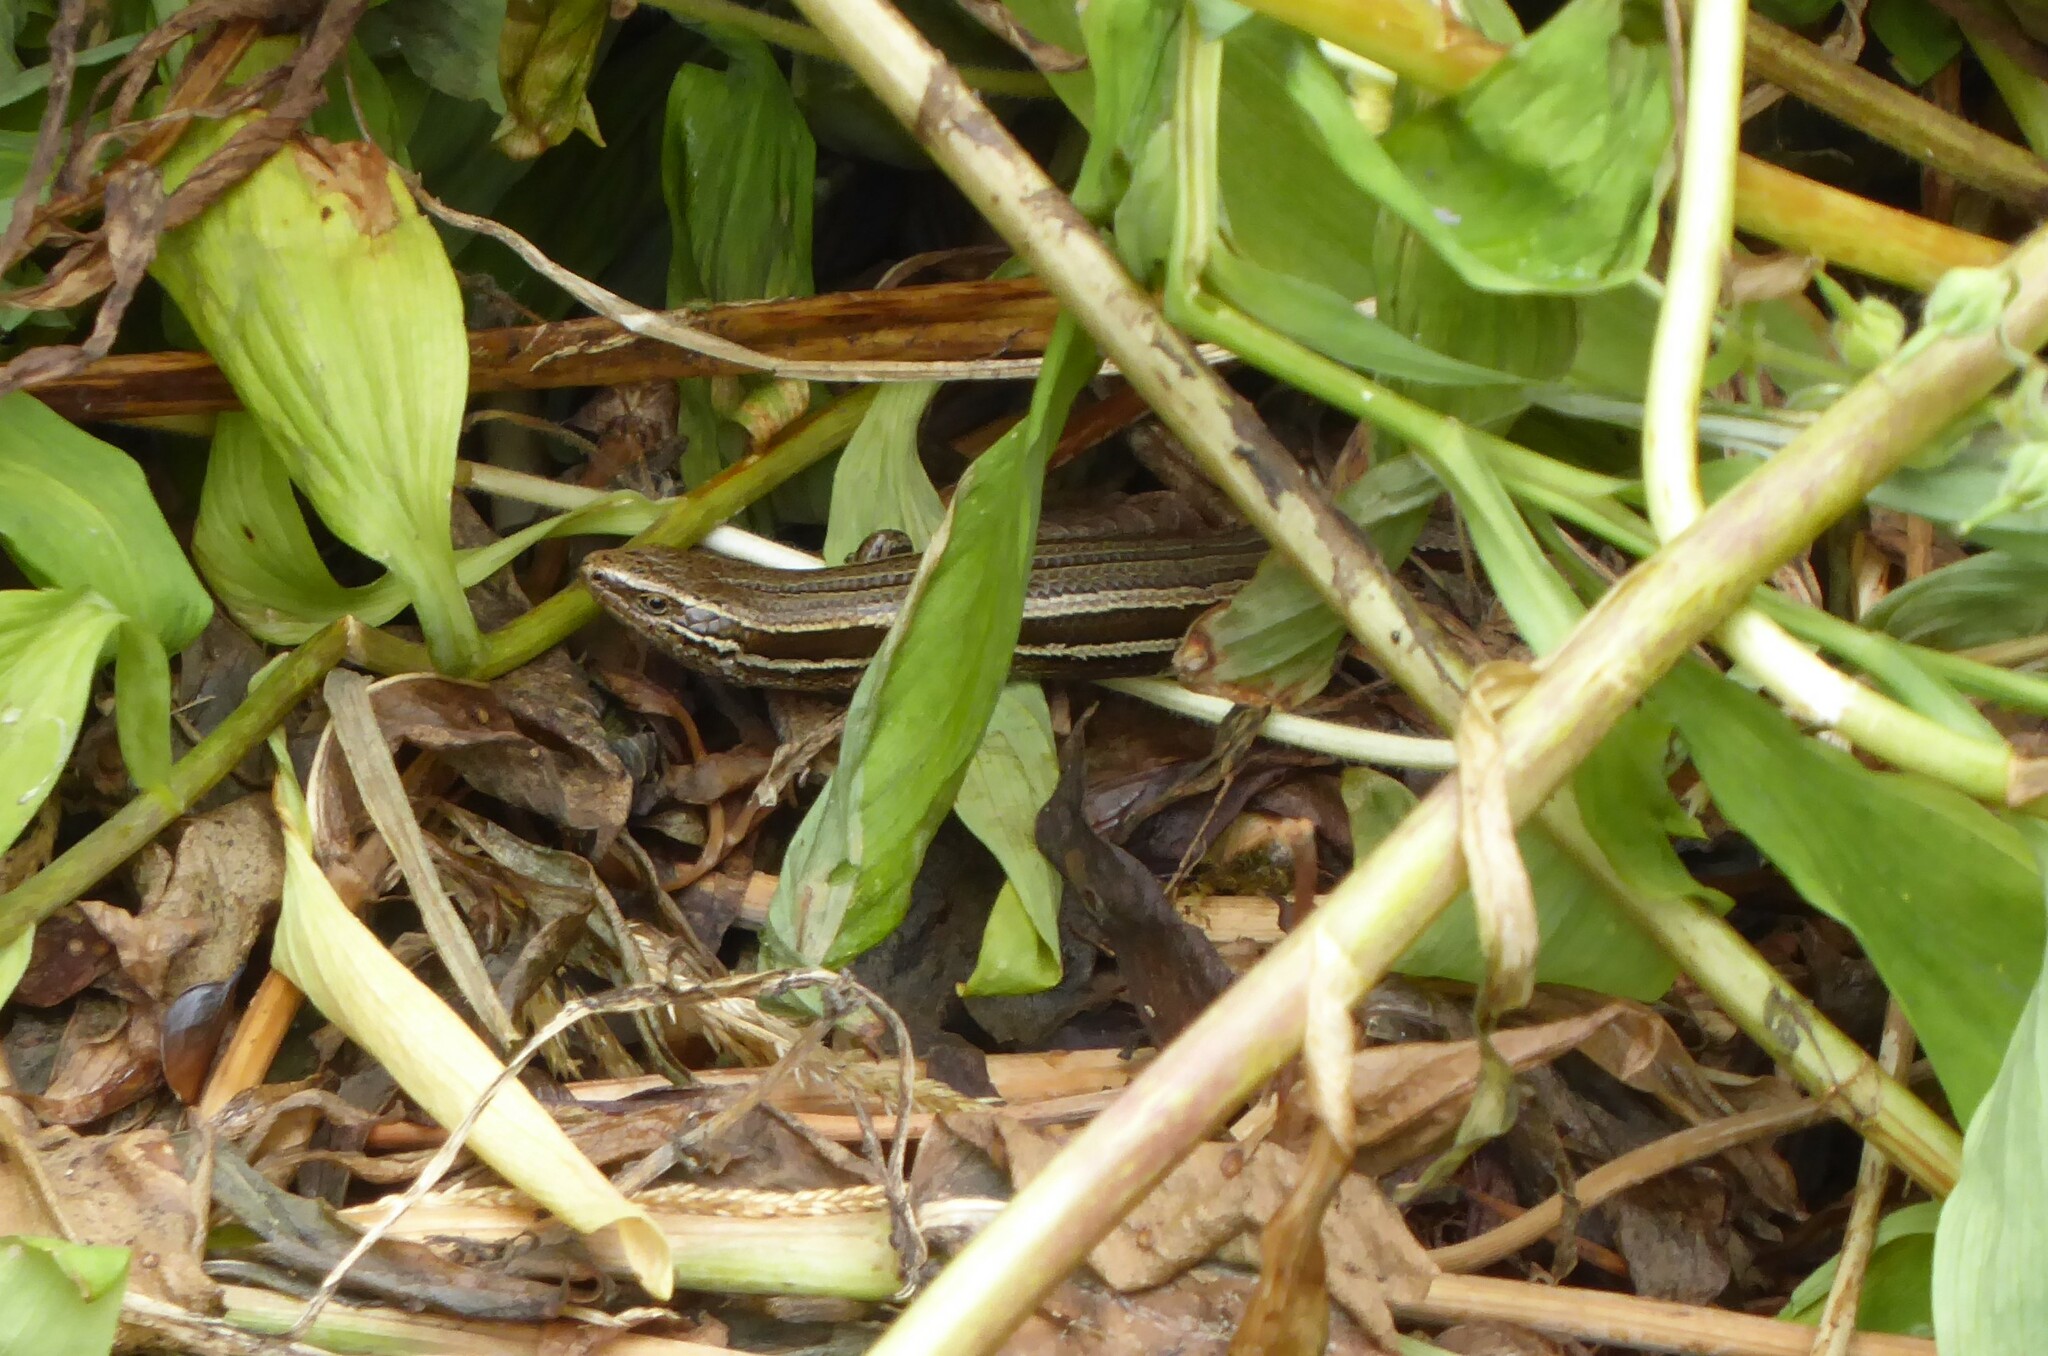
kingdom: Animalia
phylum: Chordata
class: Squamata
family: Scincidae
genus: Oligosoma
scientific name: Oligosoma polychroma
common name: Common new zealand skink
